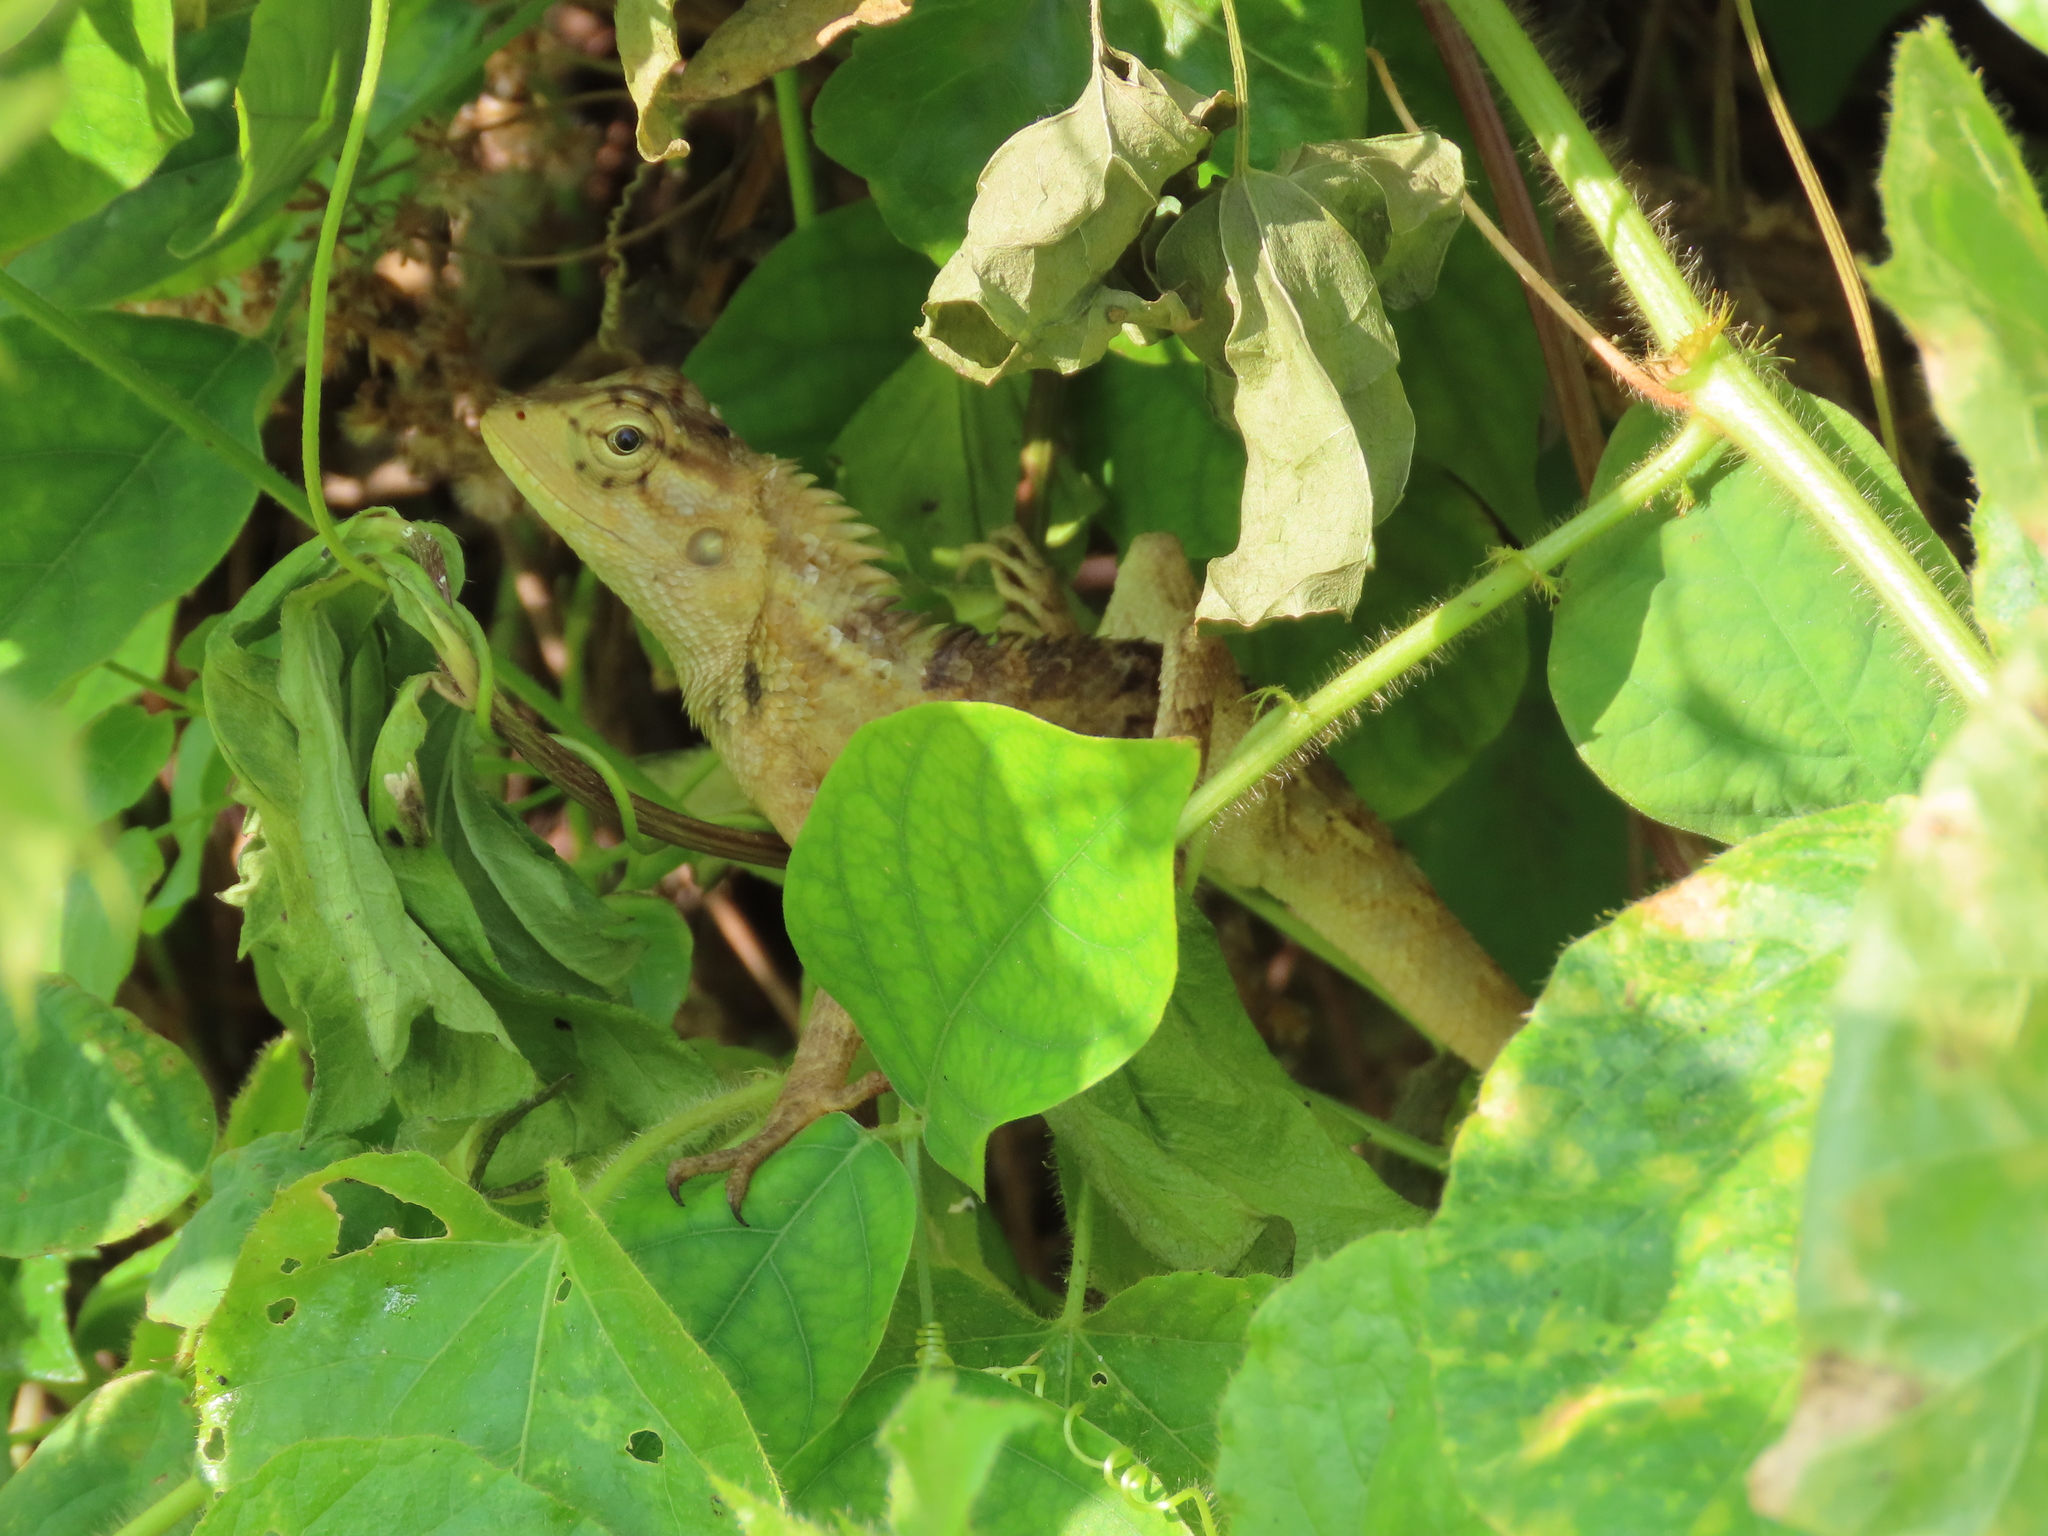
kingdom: Animalia
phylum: Chordata
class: Squamata
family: Agamidae
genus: Calotes
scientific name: Calotes versicolor
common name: Oriental garden lizard
